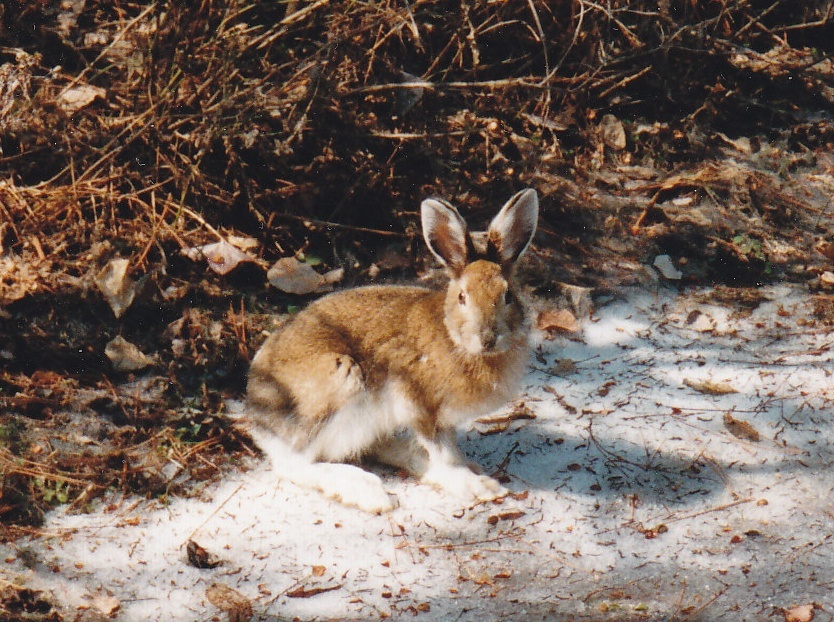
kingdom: Animalia
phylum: Chordata
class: Mammalia
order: Lagomorpha
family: Leporidae
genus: Lepus
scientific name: Lepus americanus
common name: Snowshoe hare
